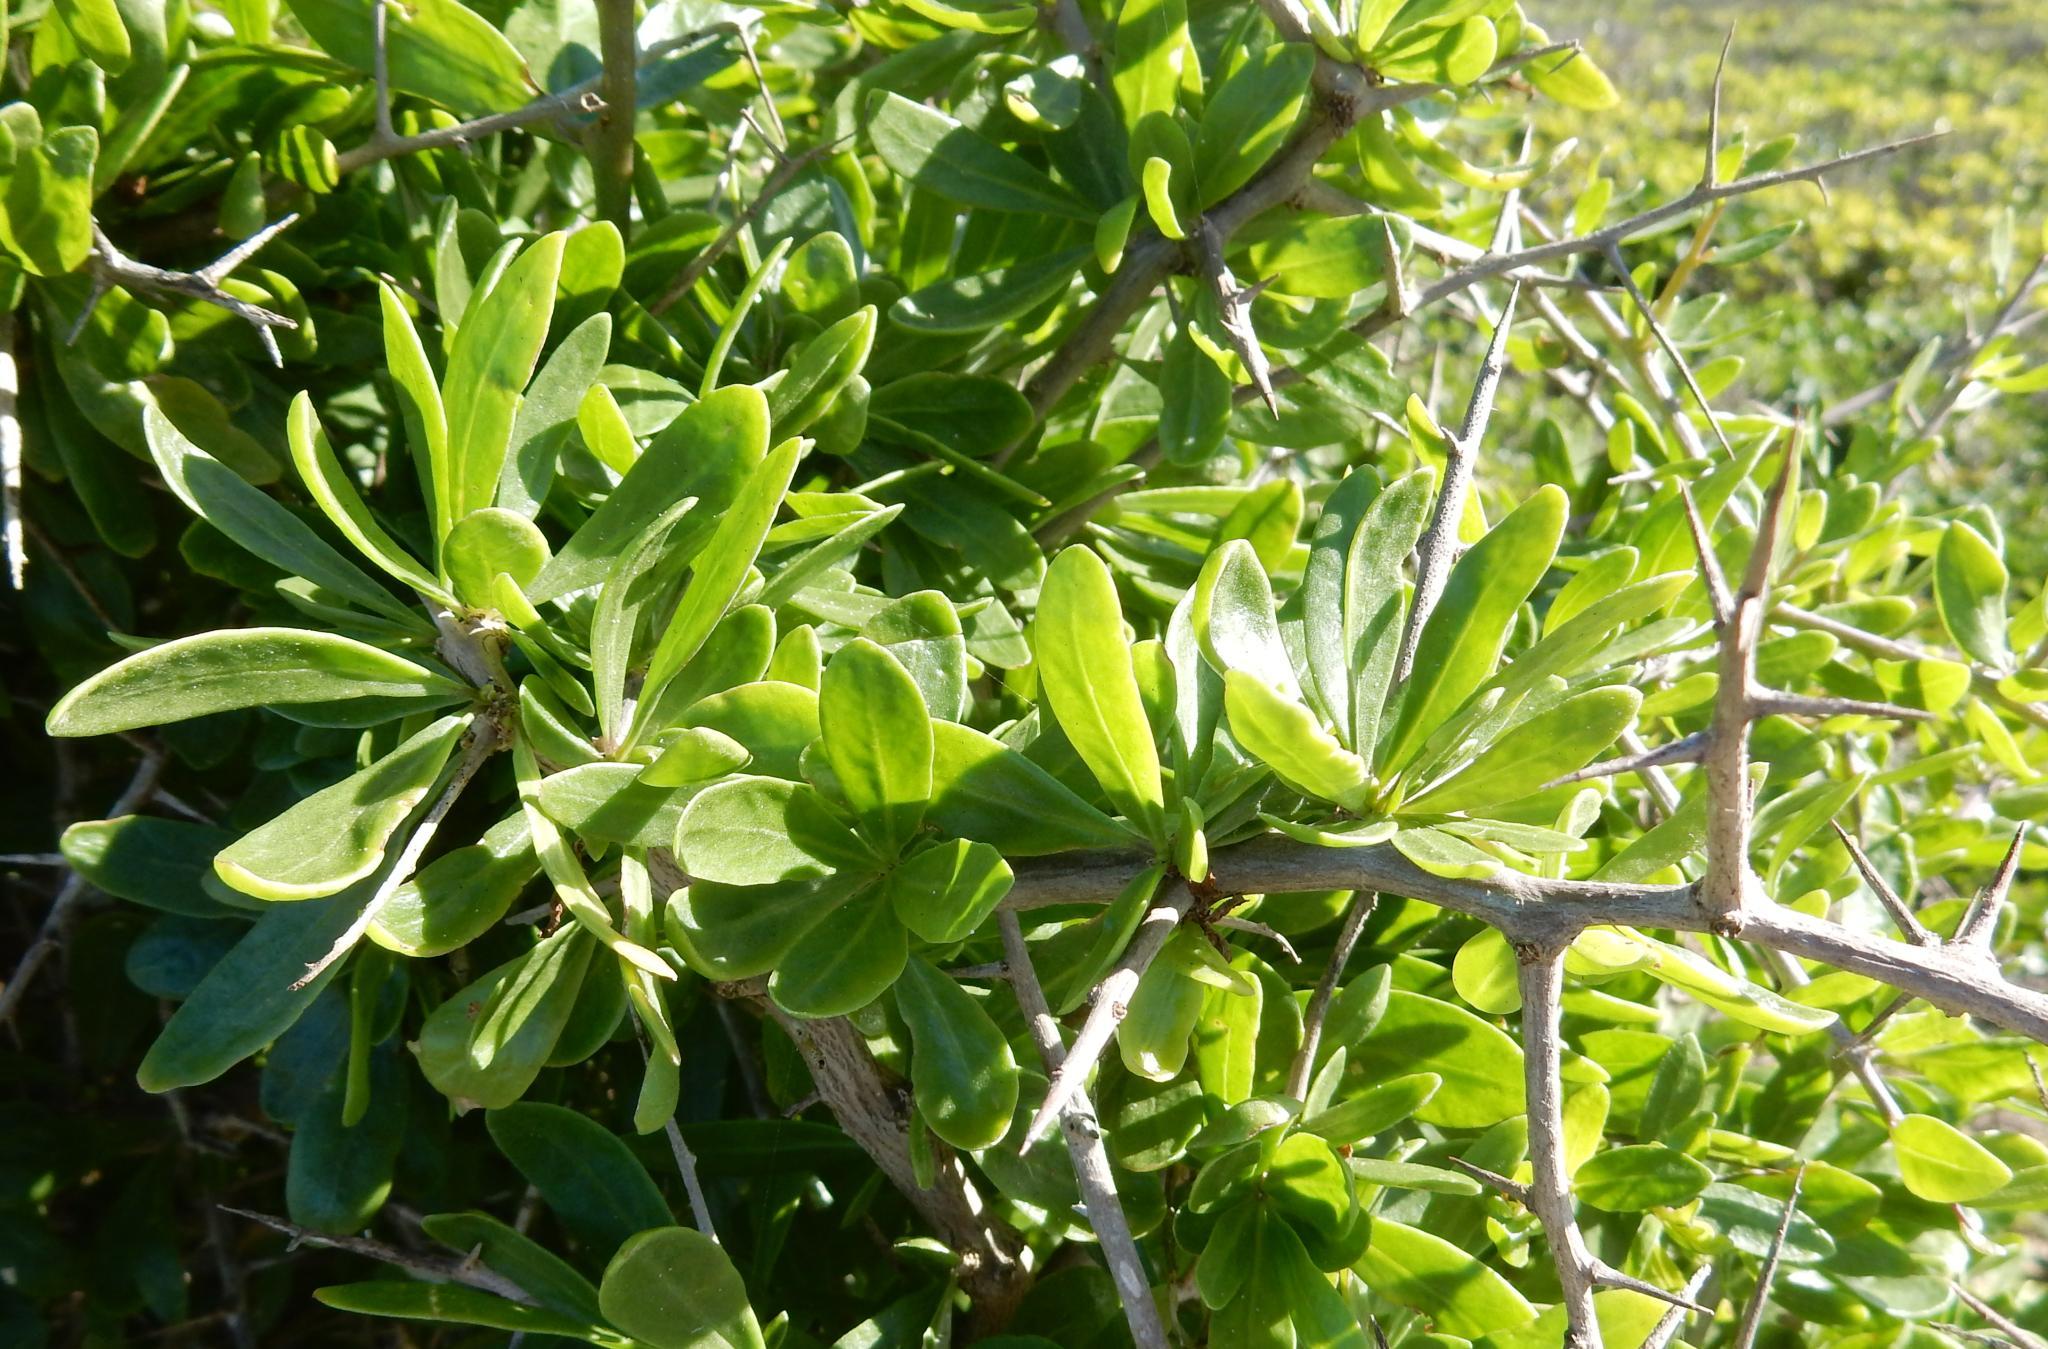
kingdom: Plantae
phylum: Tracheophyta
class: Magnoliopsida
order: Solanales
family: Solanaceae
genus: Lycium
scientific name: Lycium ferocissimum
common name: African boxthorn
